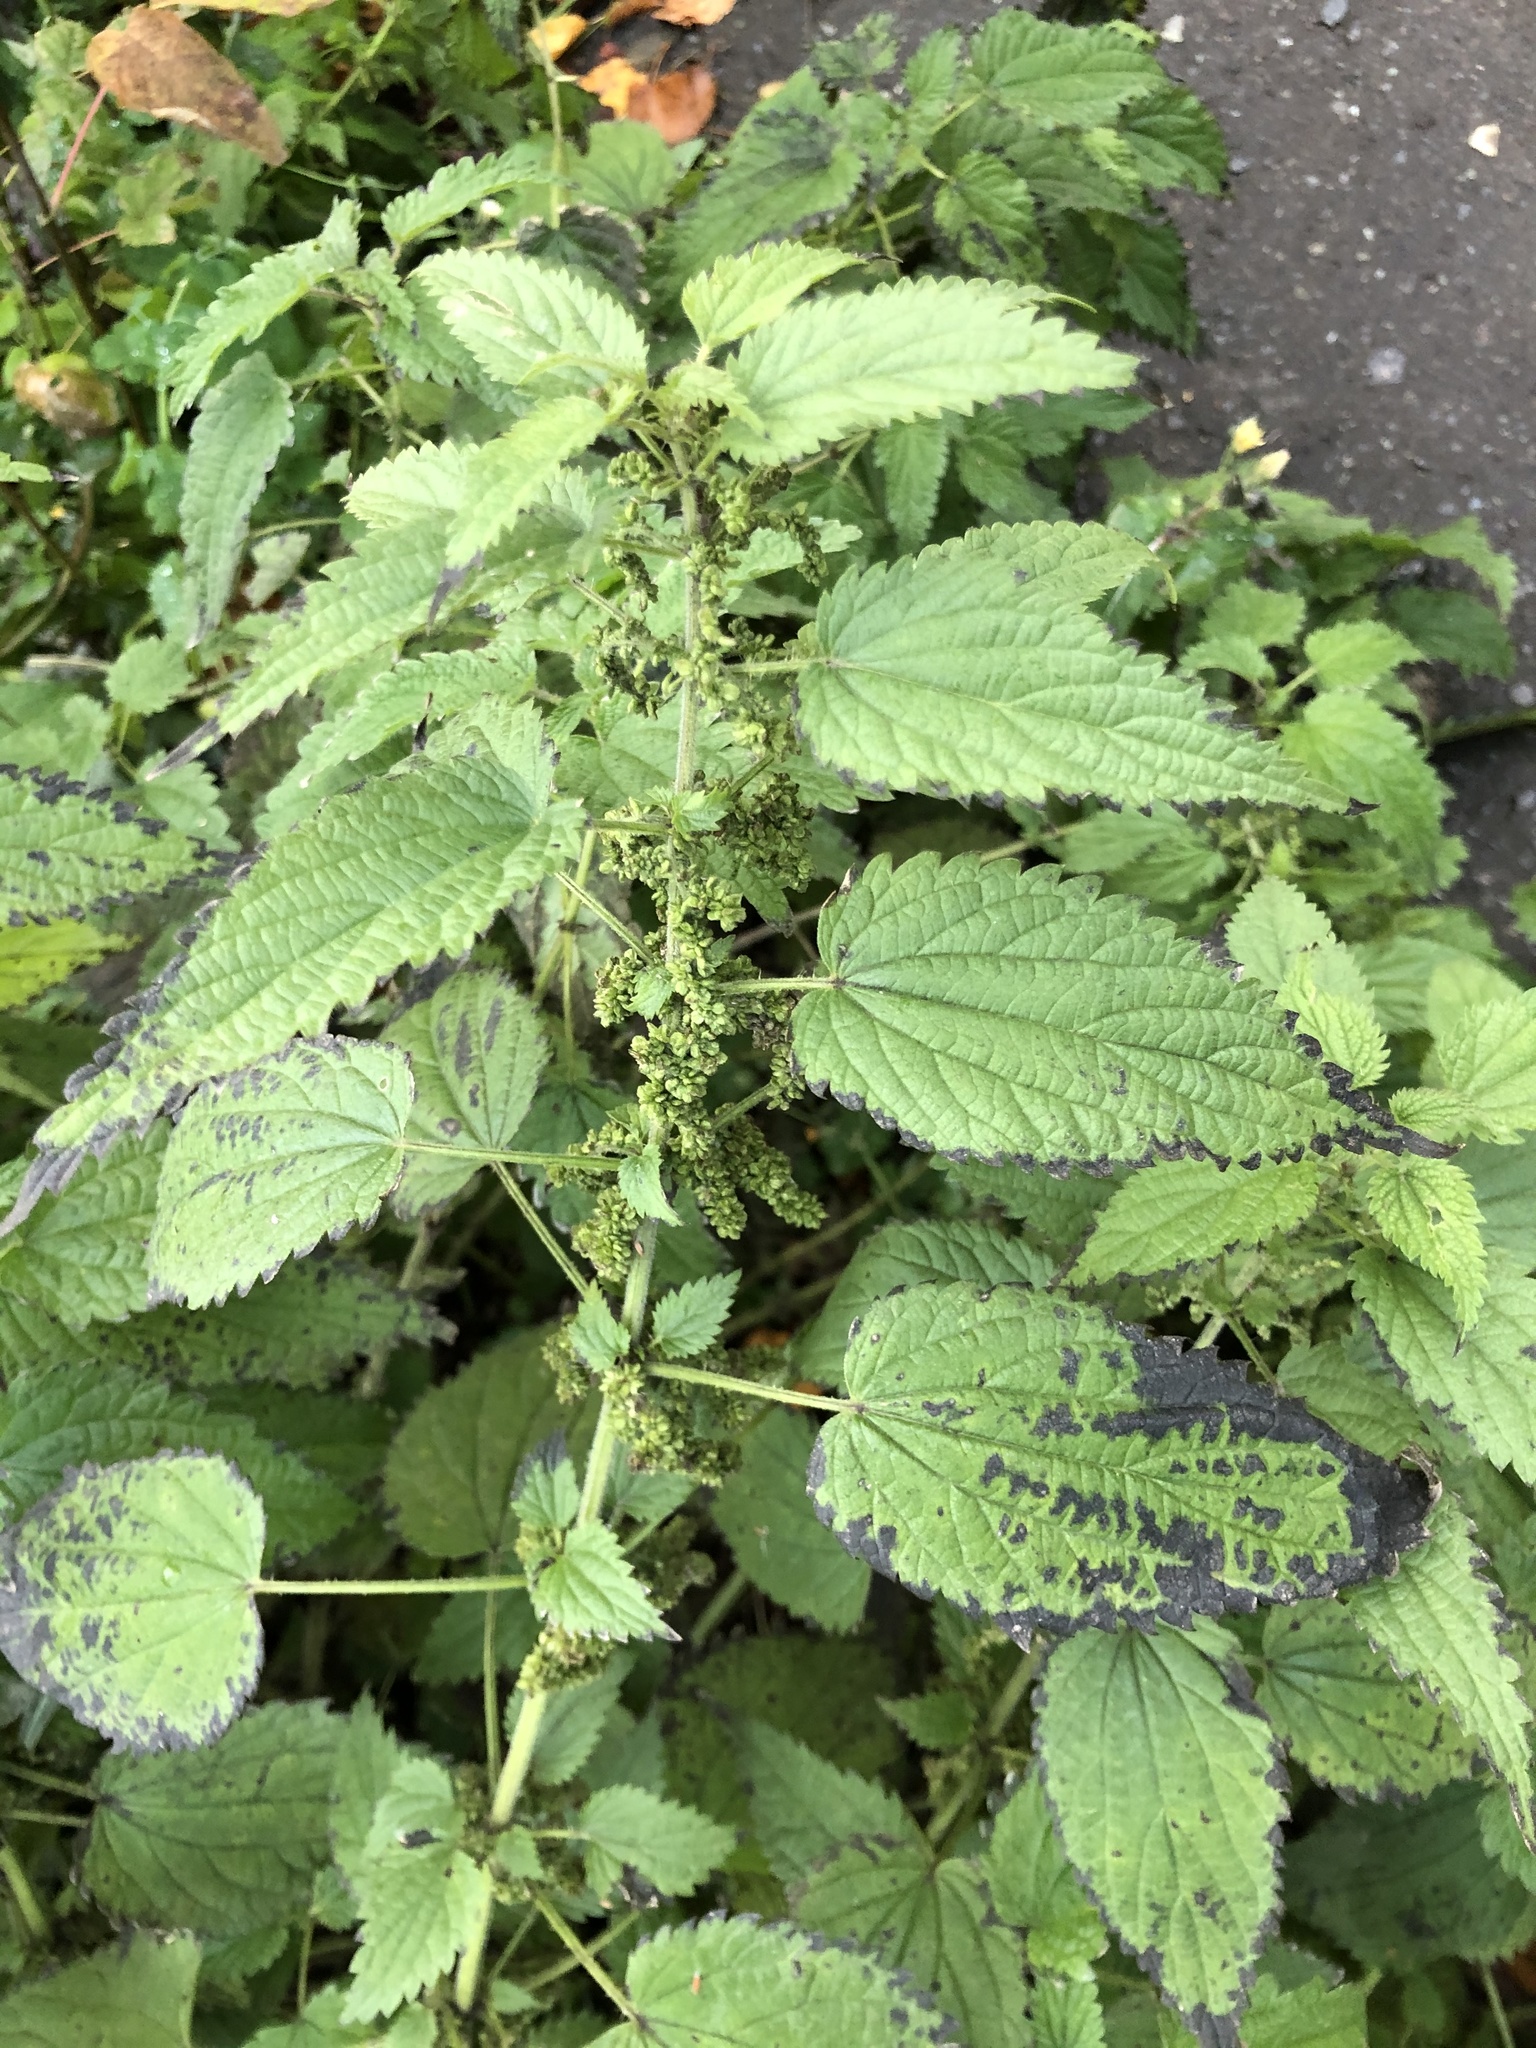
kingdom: Plantae
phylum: Tracheophyta
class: Magnoliopsida
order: Rosales
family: Urticaceae
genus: Urtica
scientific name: Urtica dioica
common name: Common nettle
